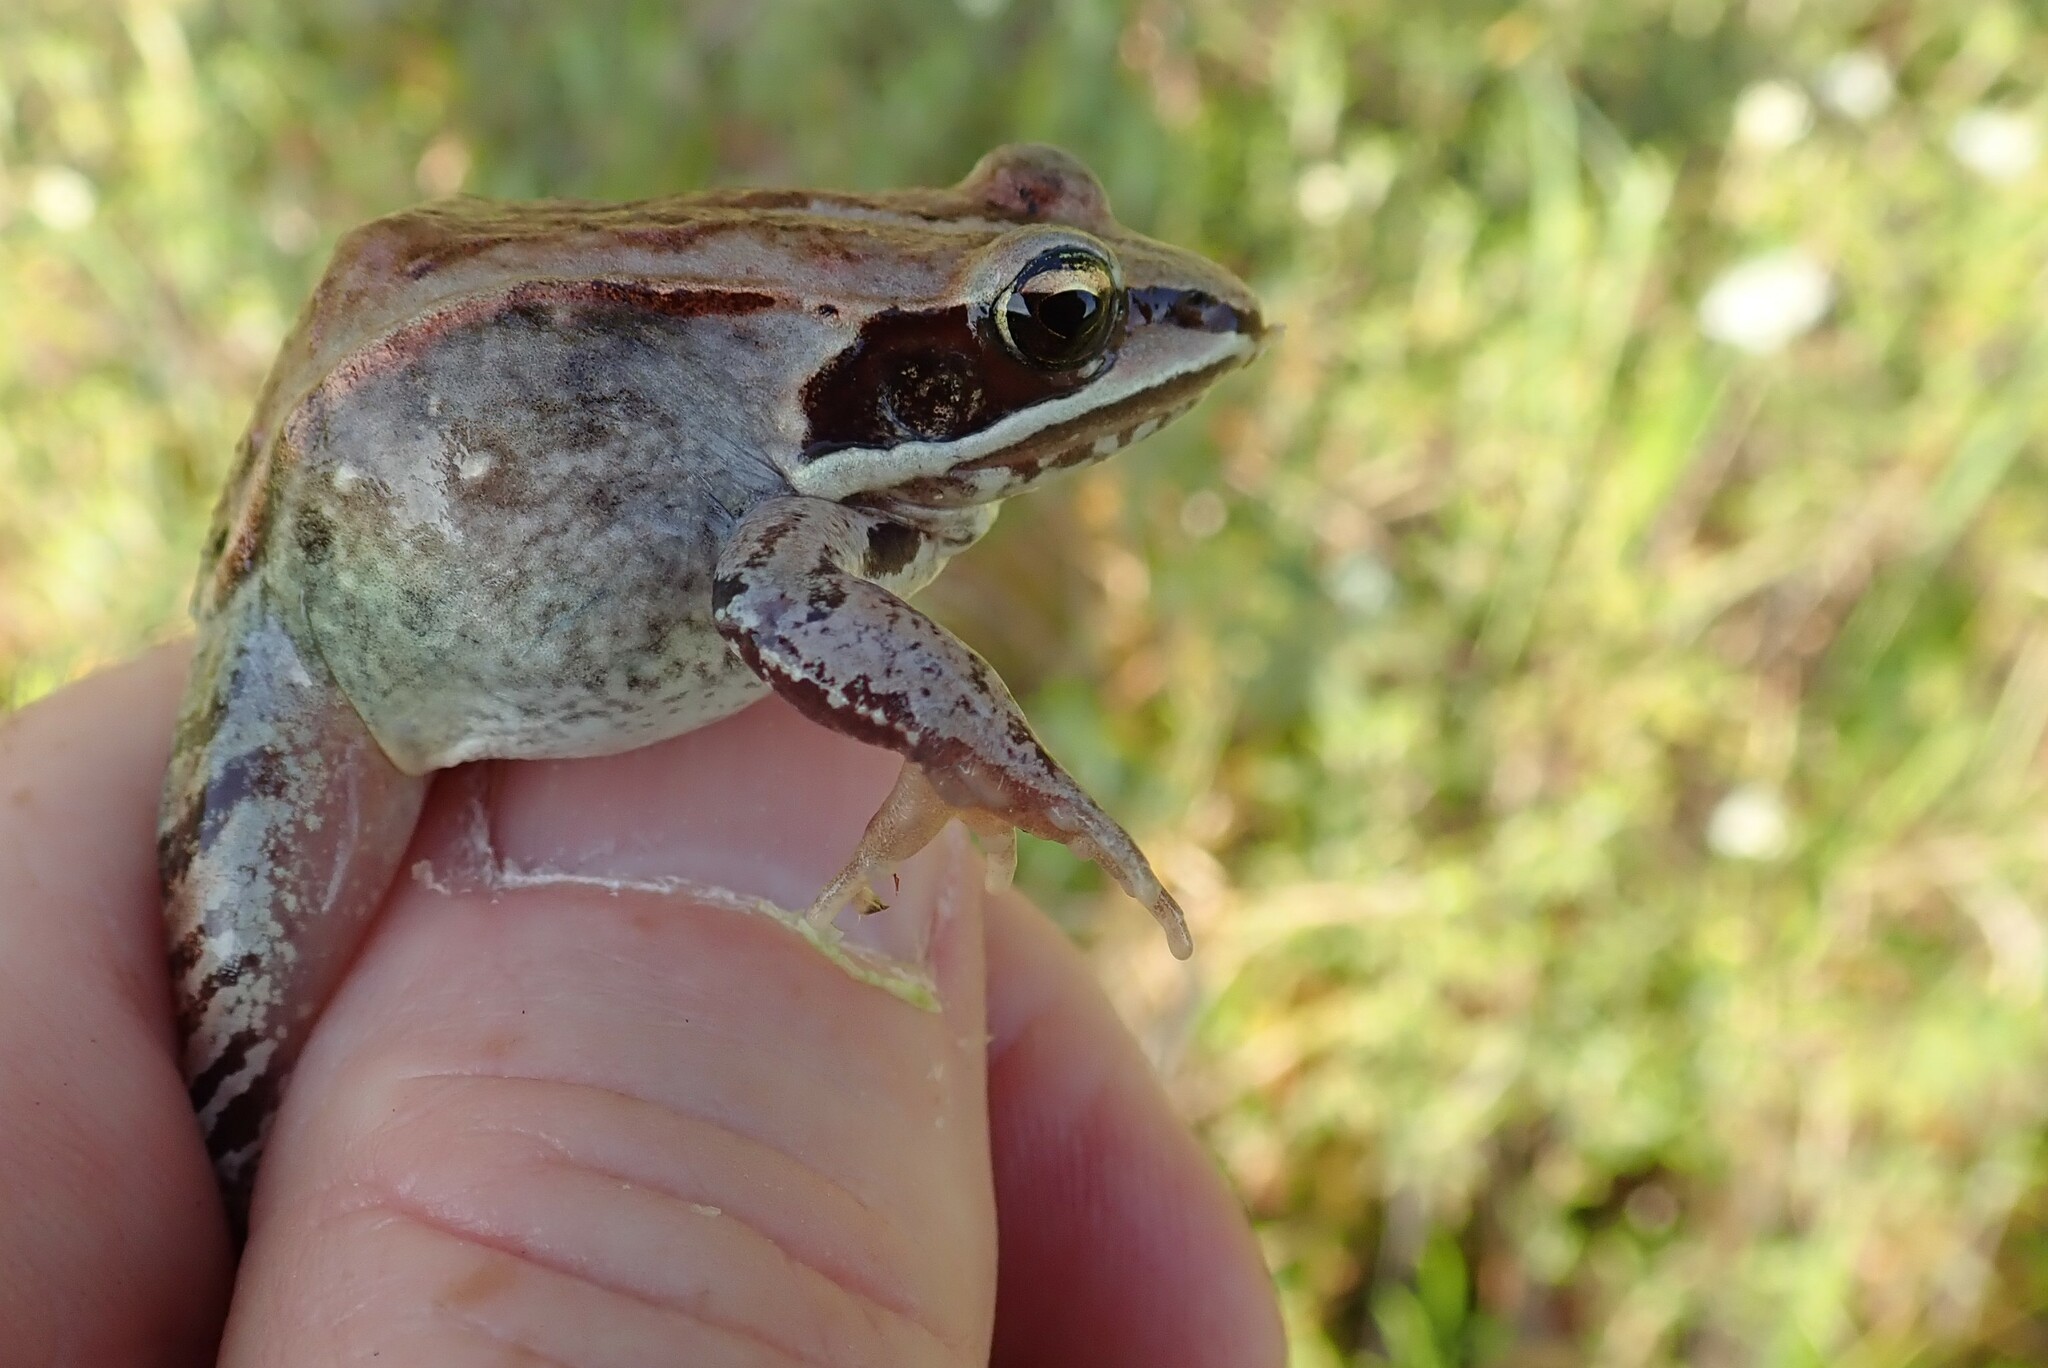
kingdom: Animalia
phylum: Chordata
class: Amphibia
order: Anura
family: Ranidae
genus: Lithobates
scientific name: Lithobates sylvaticus
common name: Wood frog
